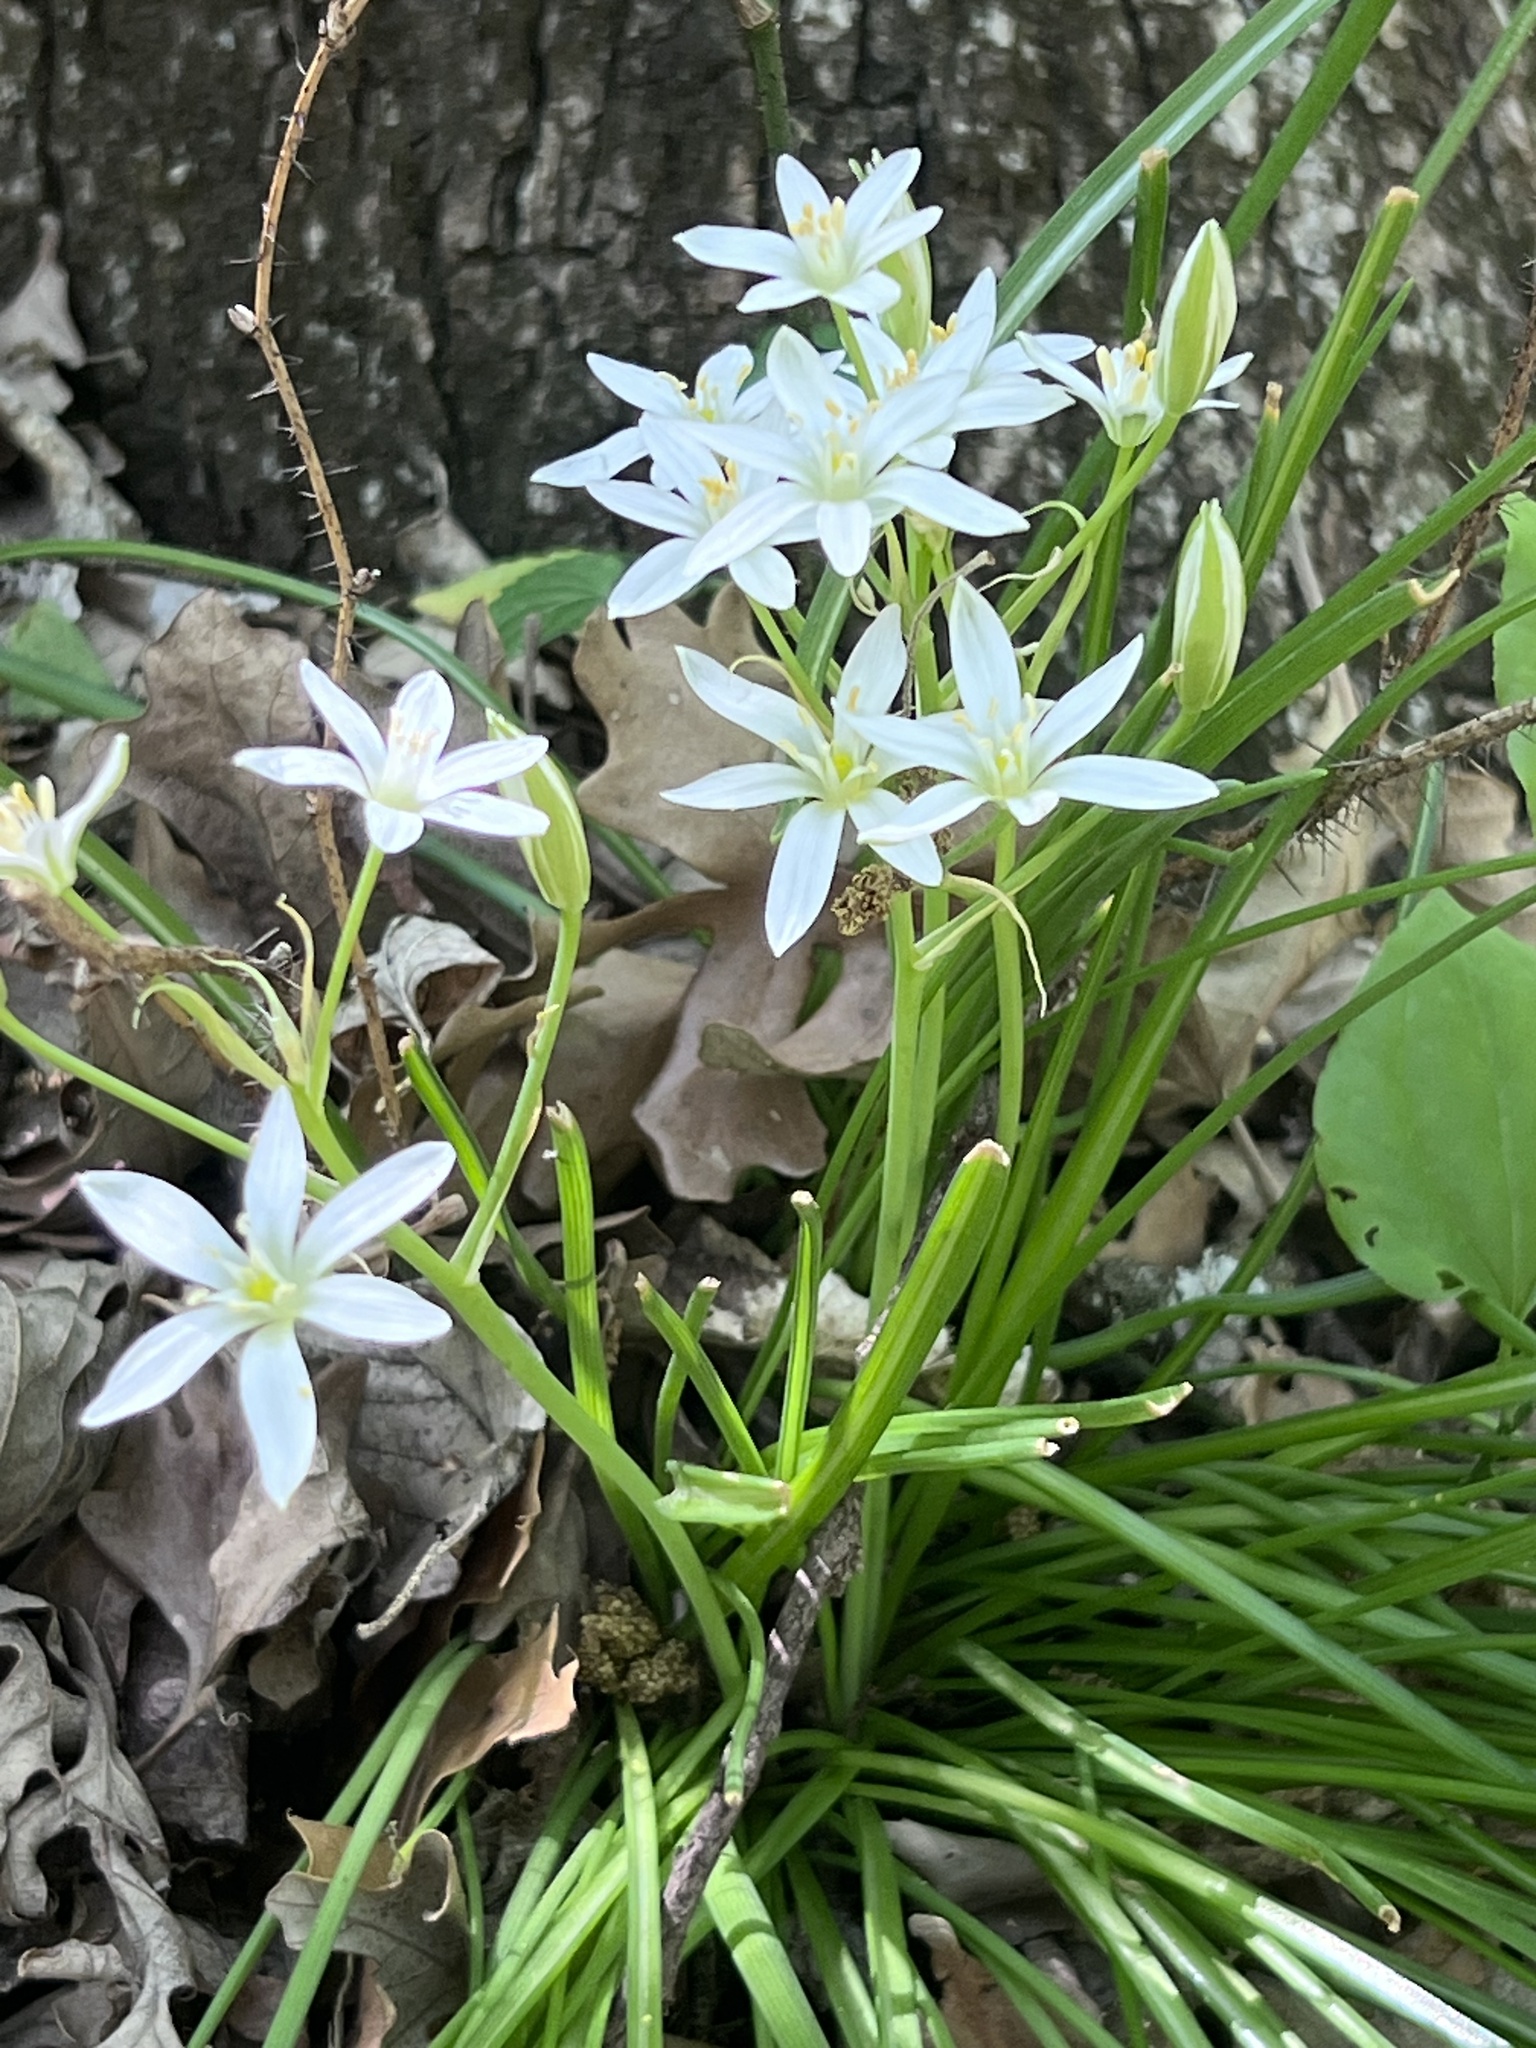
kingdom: Plantae
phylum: Tracheophyta
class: Liliopsida
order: Asparagales
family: Asparagaceae
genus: Ornithogalum
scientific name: Ornithogalum umbellatum
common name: Garden star-of-bethlehem
